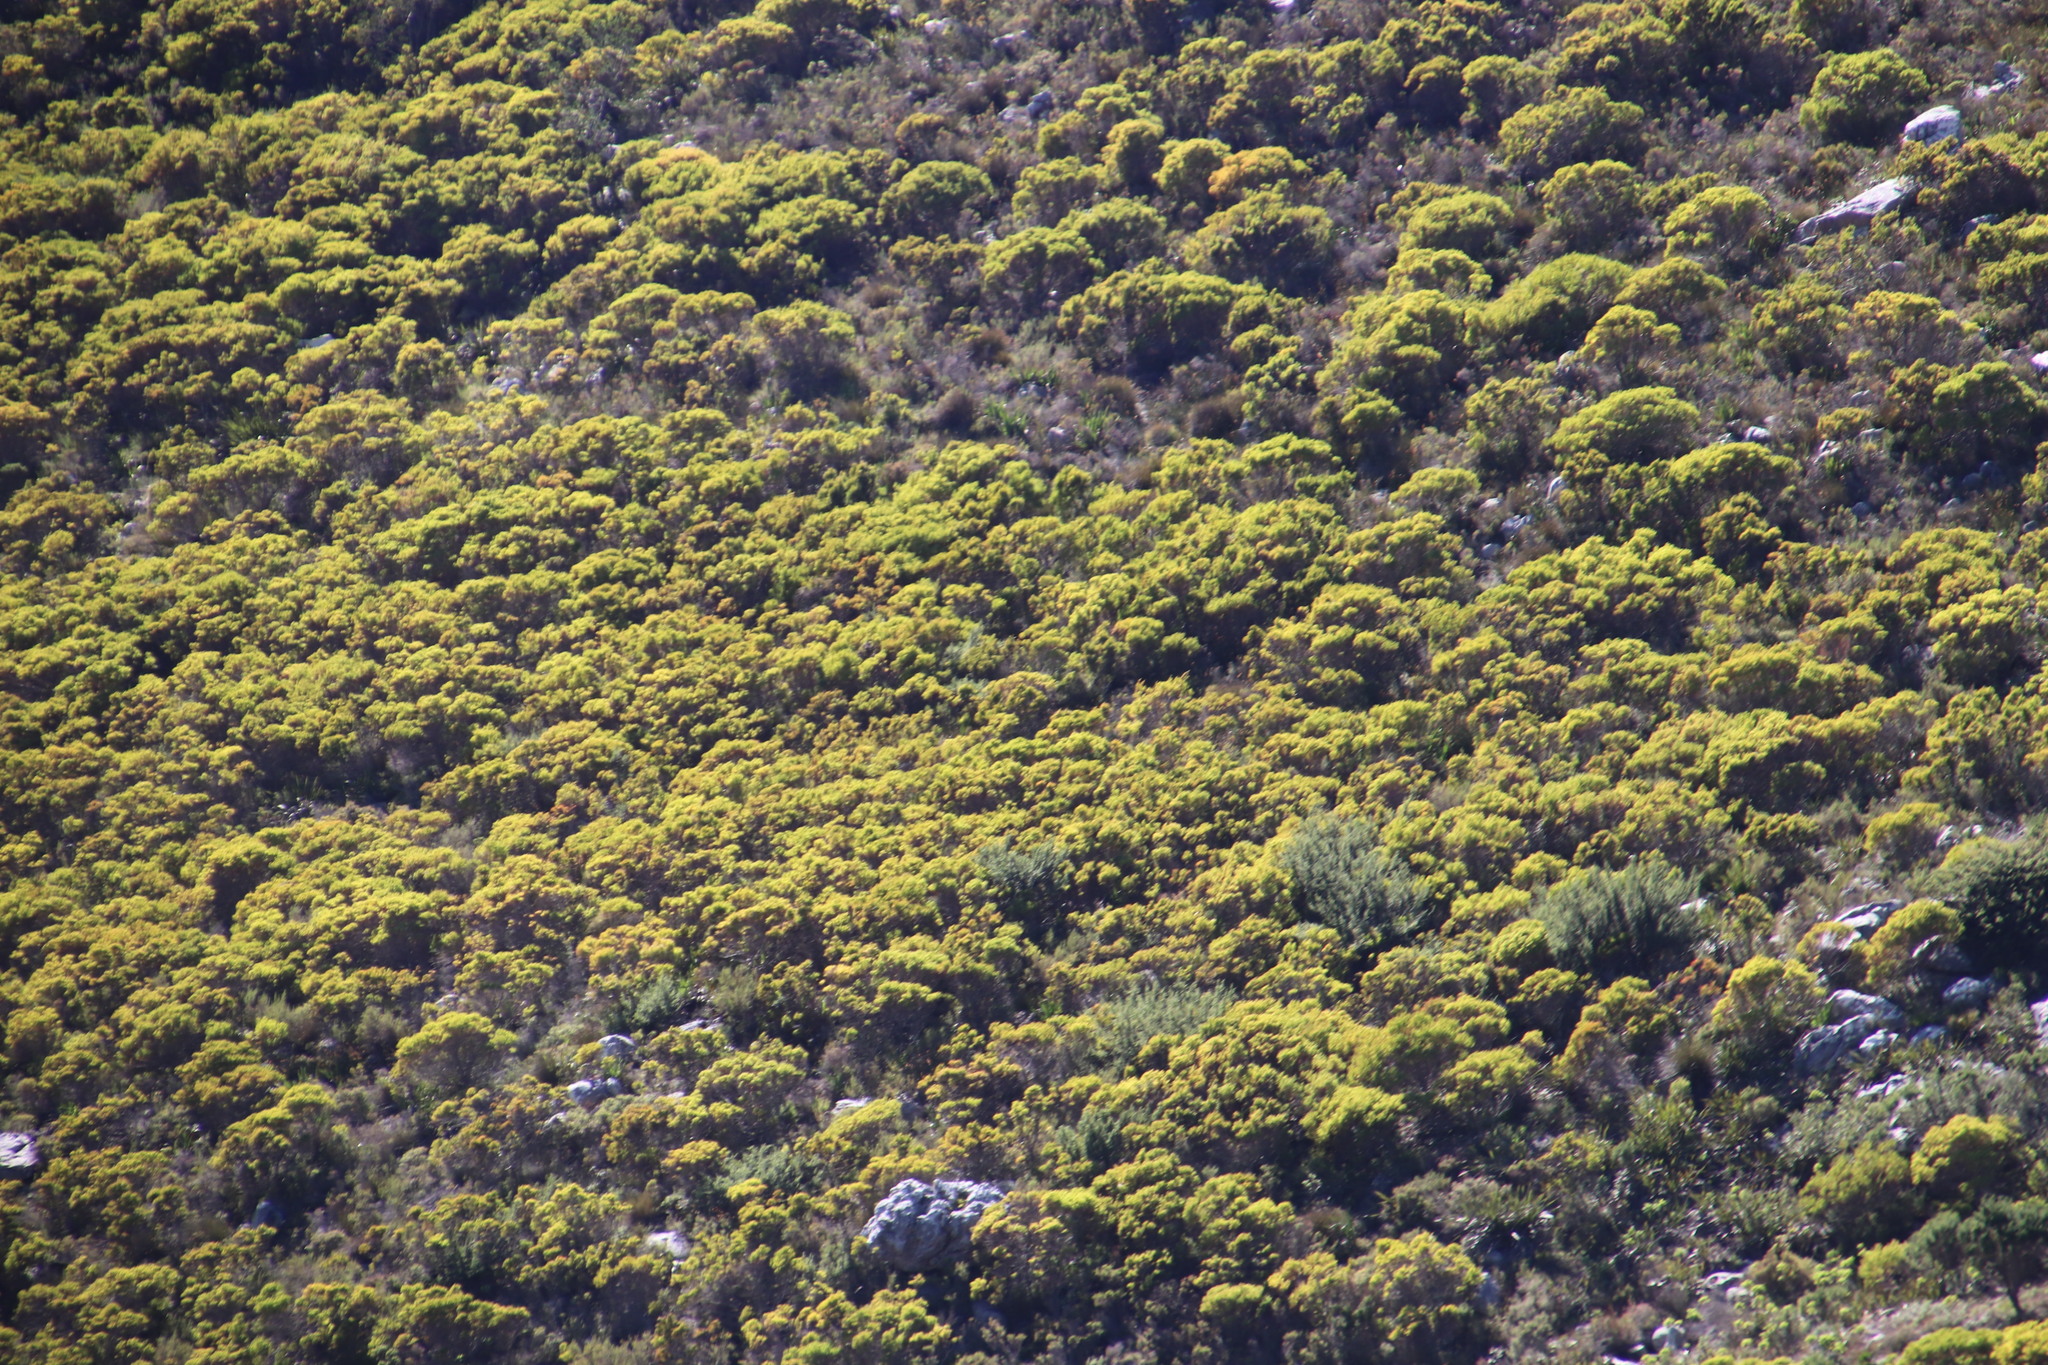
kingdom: Plantae
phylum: Tracheophyta
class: Magnoliopsida
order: Proteales
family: Proteaceae
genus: Leucadendron
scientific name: Leucadendron xanthoconus
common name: Sickle-leaf conebush
